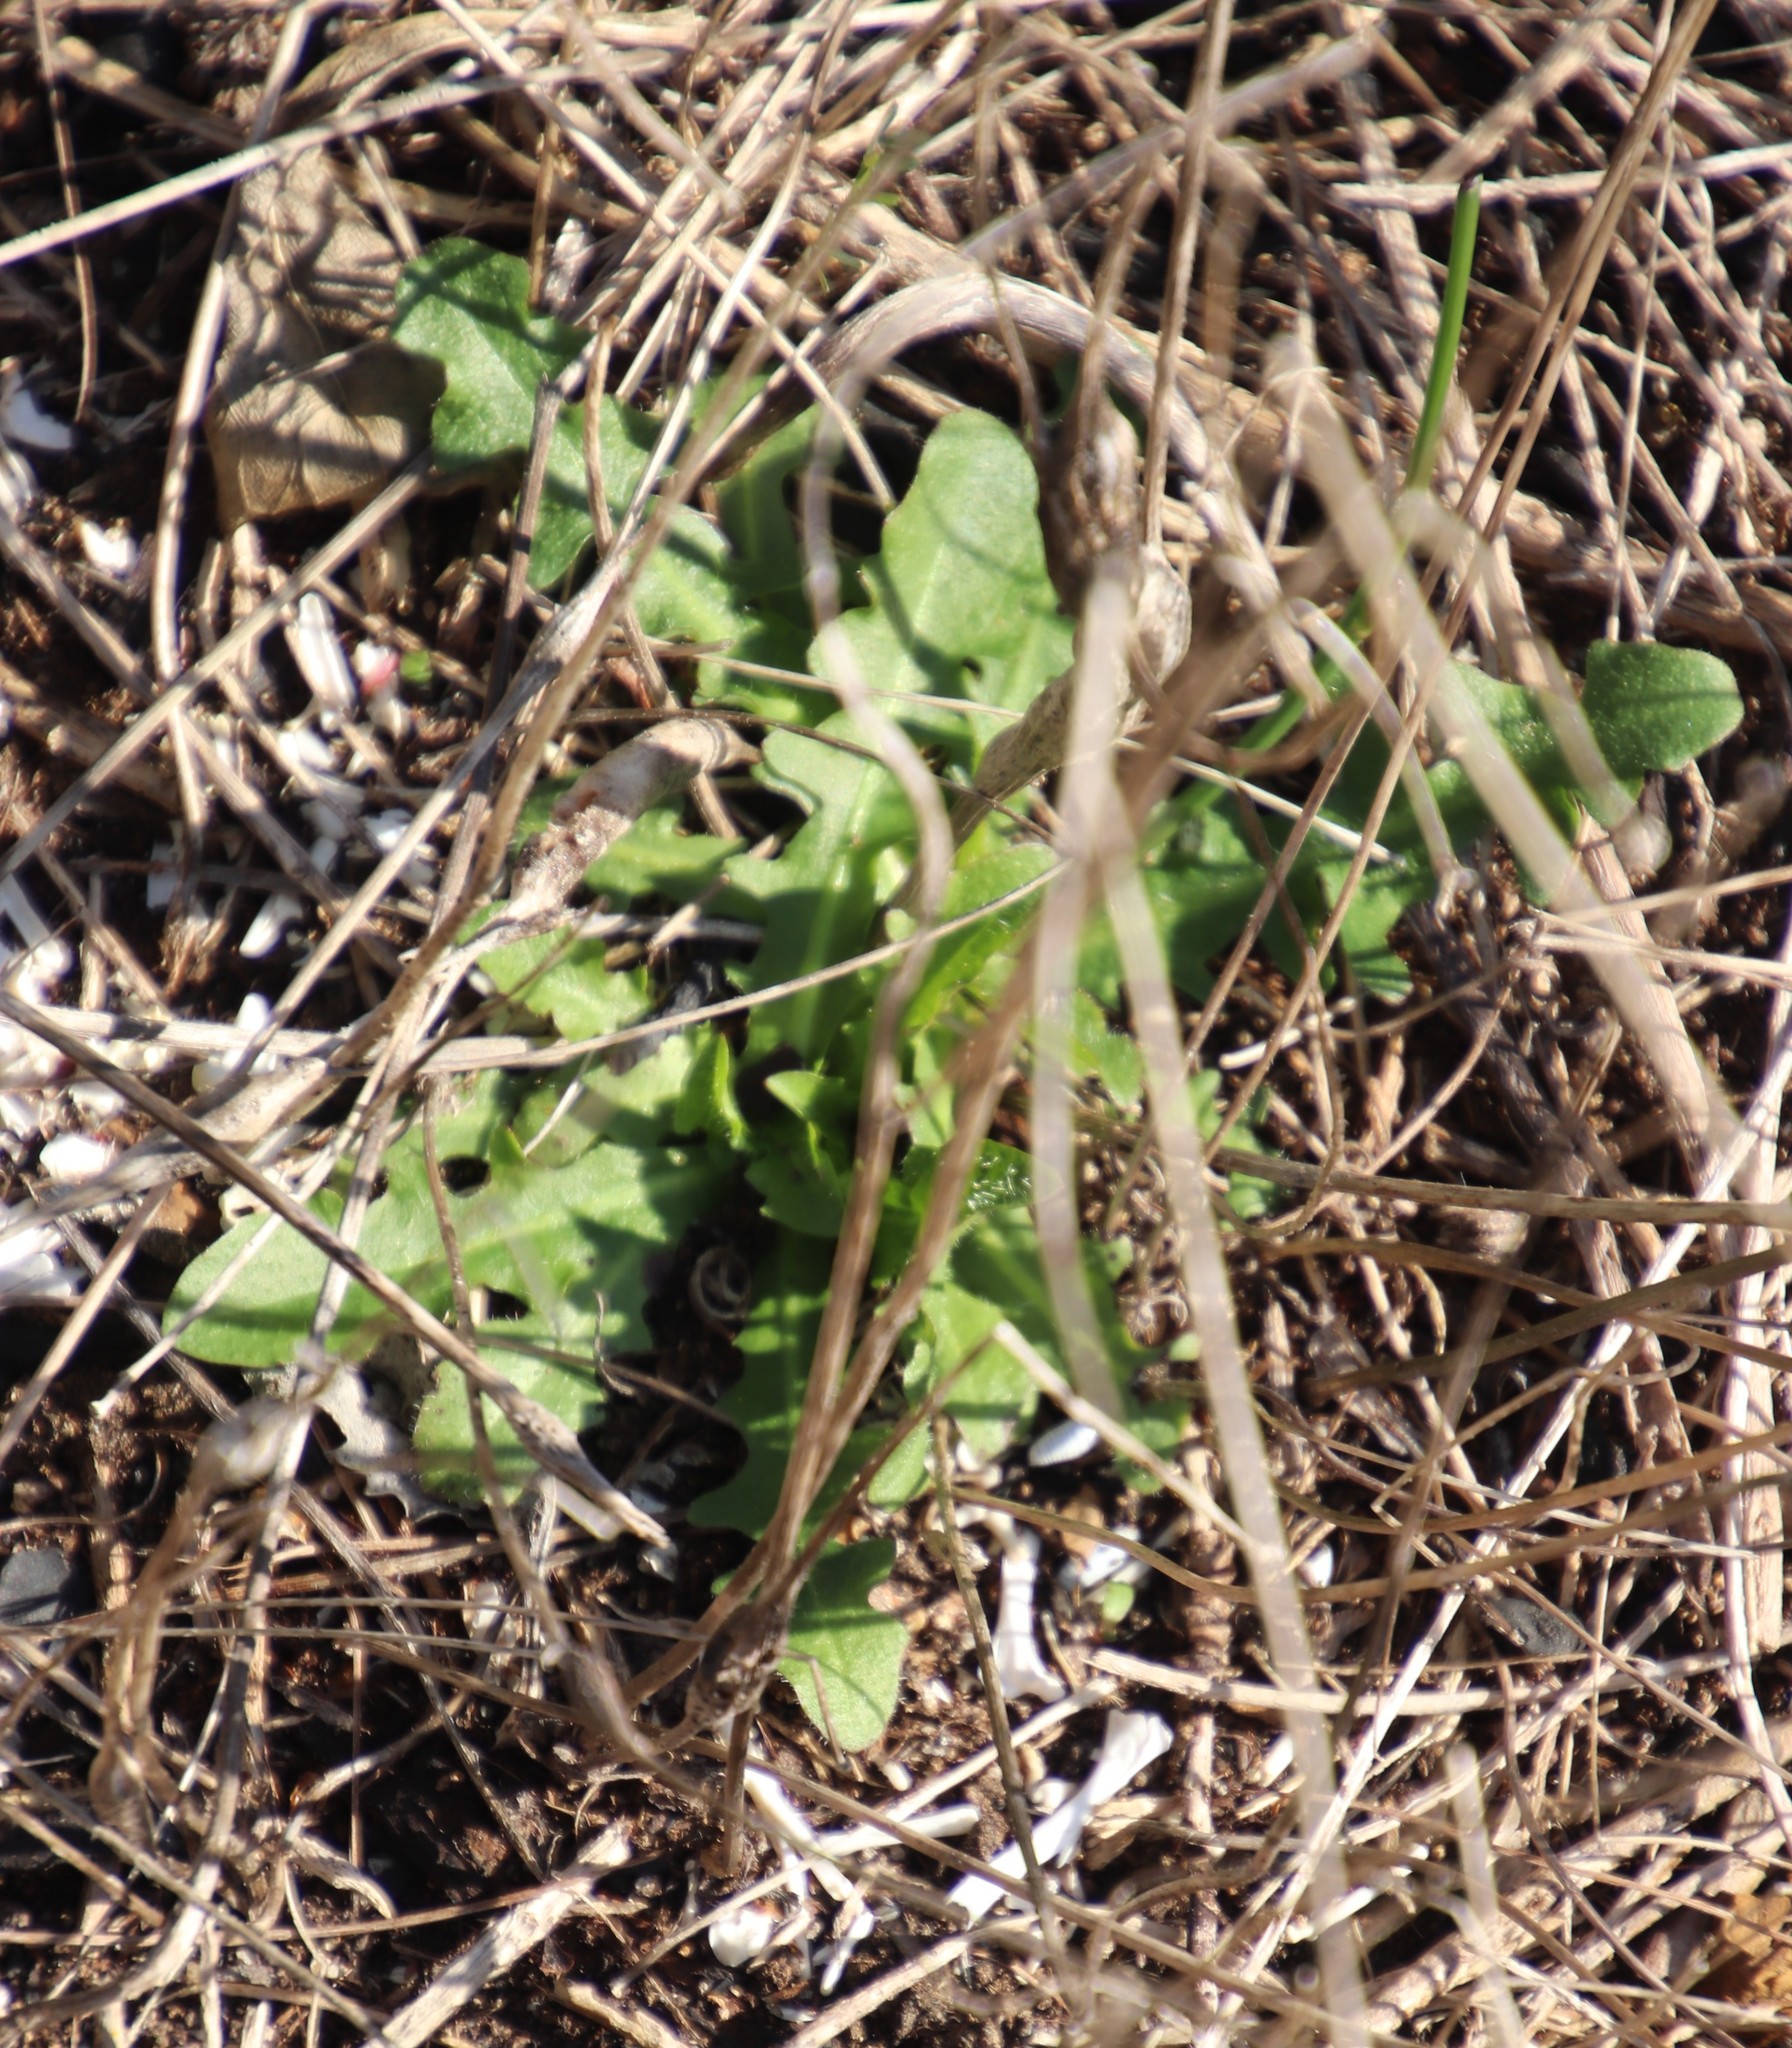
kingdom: Plantae
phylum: Tracheophyta
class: Magnoliopsida
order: Asterales
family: Asteraceae
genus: Hypochaeris
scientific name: Hypochaeris radicata
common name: Flatweed
